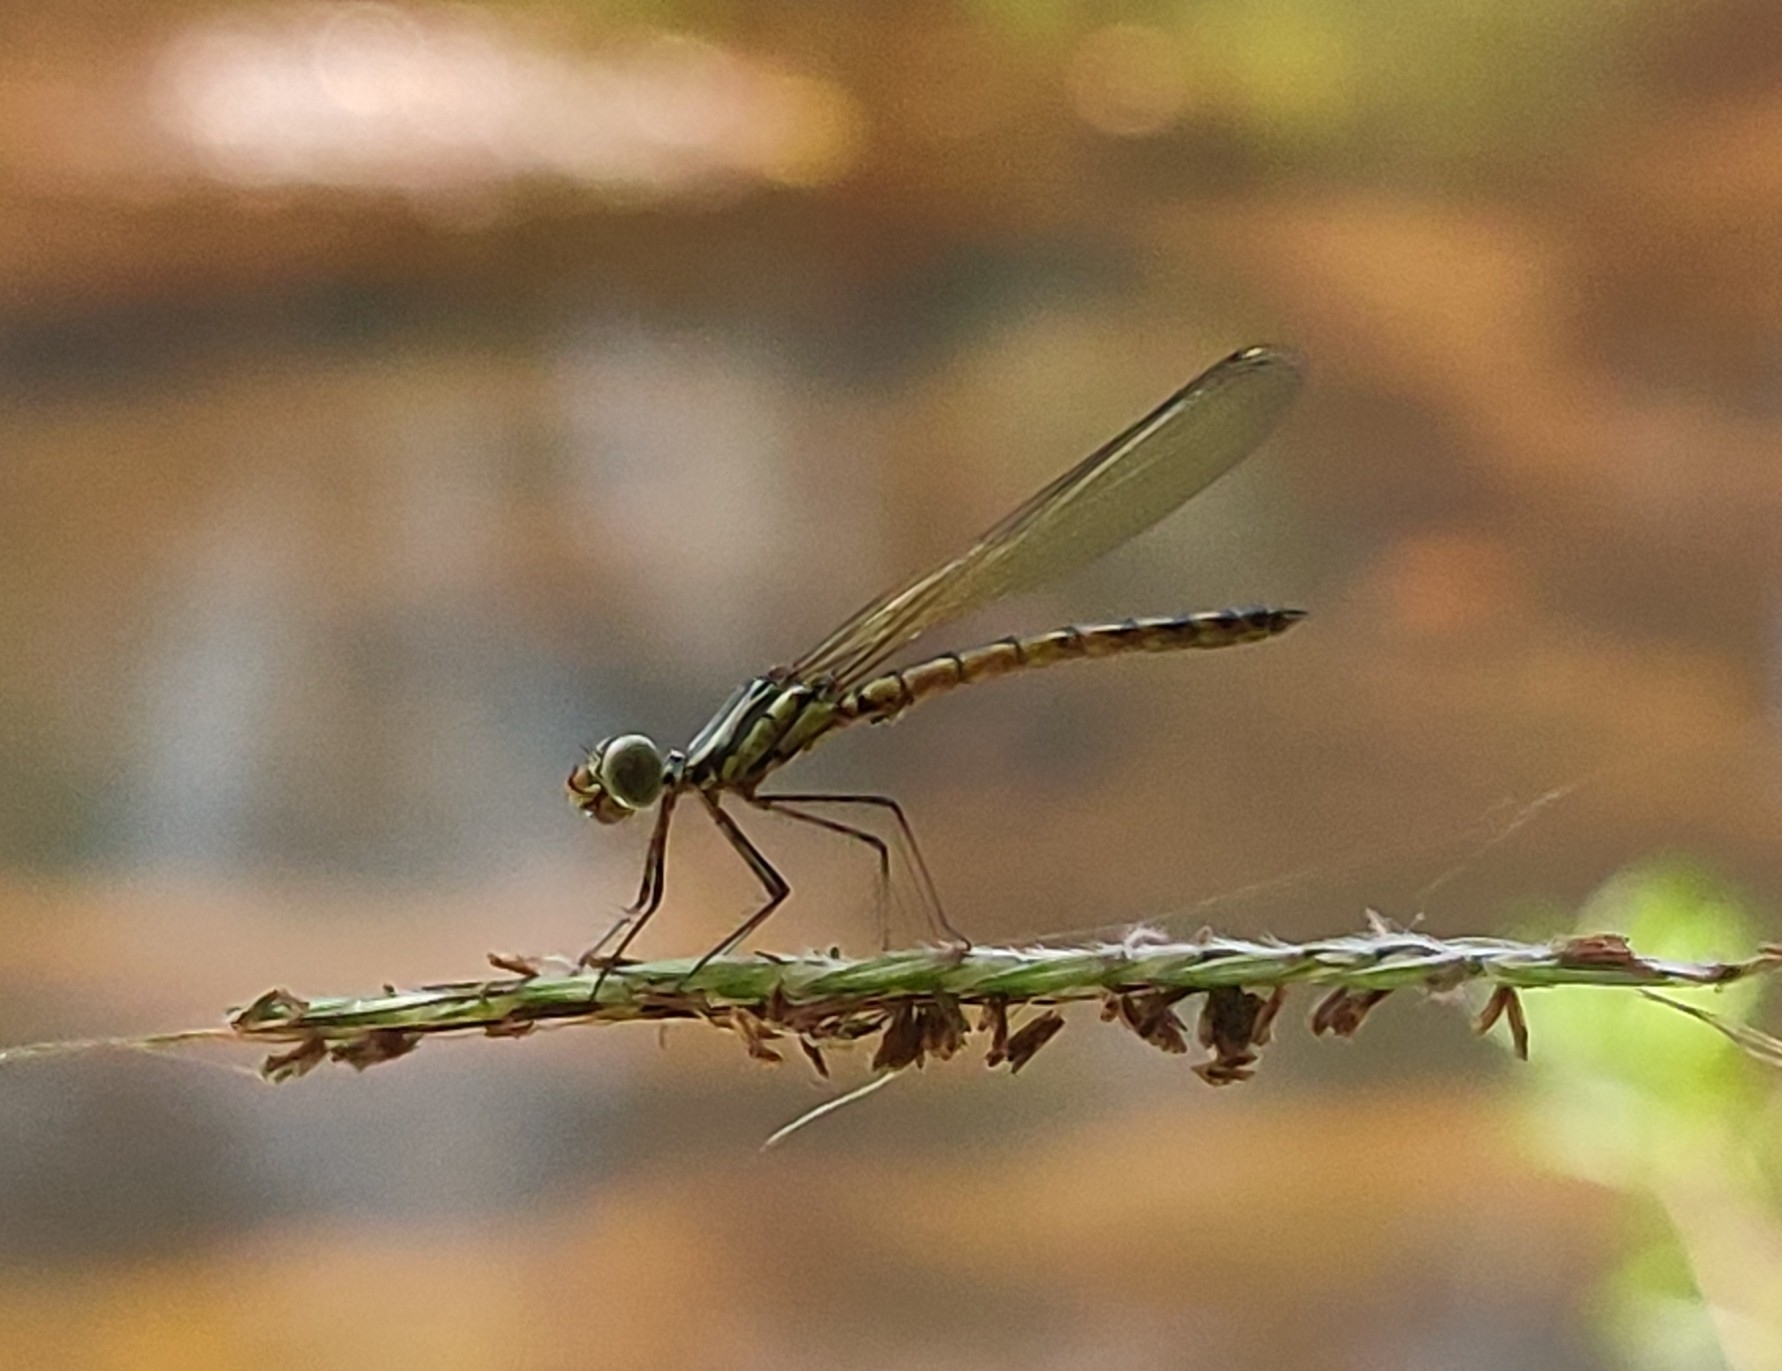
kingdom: Animalia
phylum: Arthropoda
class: Insecta
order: Odonata
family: Chlorocyphidae
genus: Libellago
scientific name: Libellago indica
